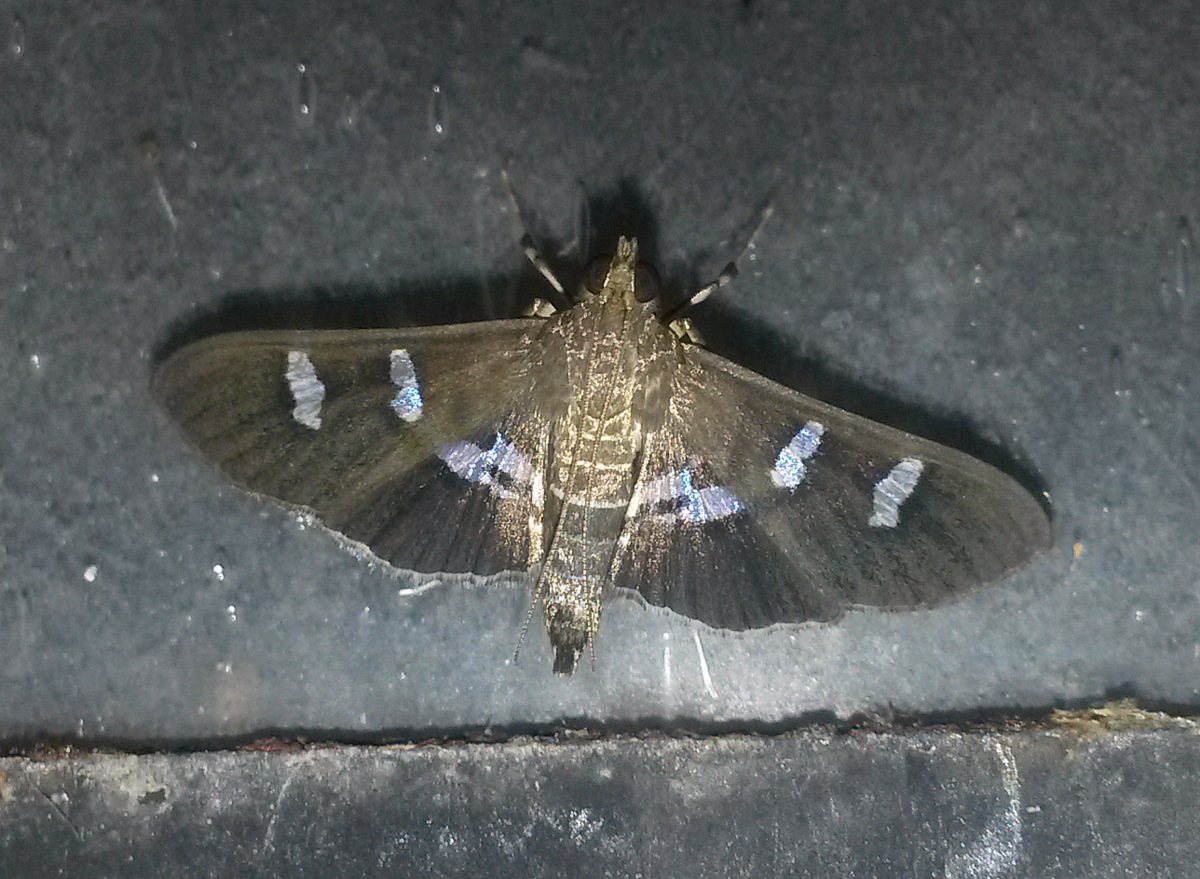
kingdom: Animalia
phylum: Arthropoda
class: Insecta
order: Lepidoptera
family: Crambidae
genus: Desmia
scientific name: Desmia deploralis
